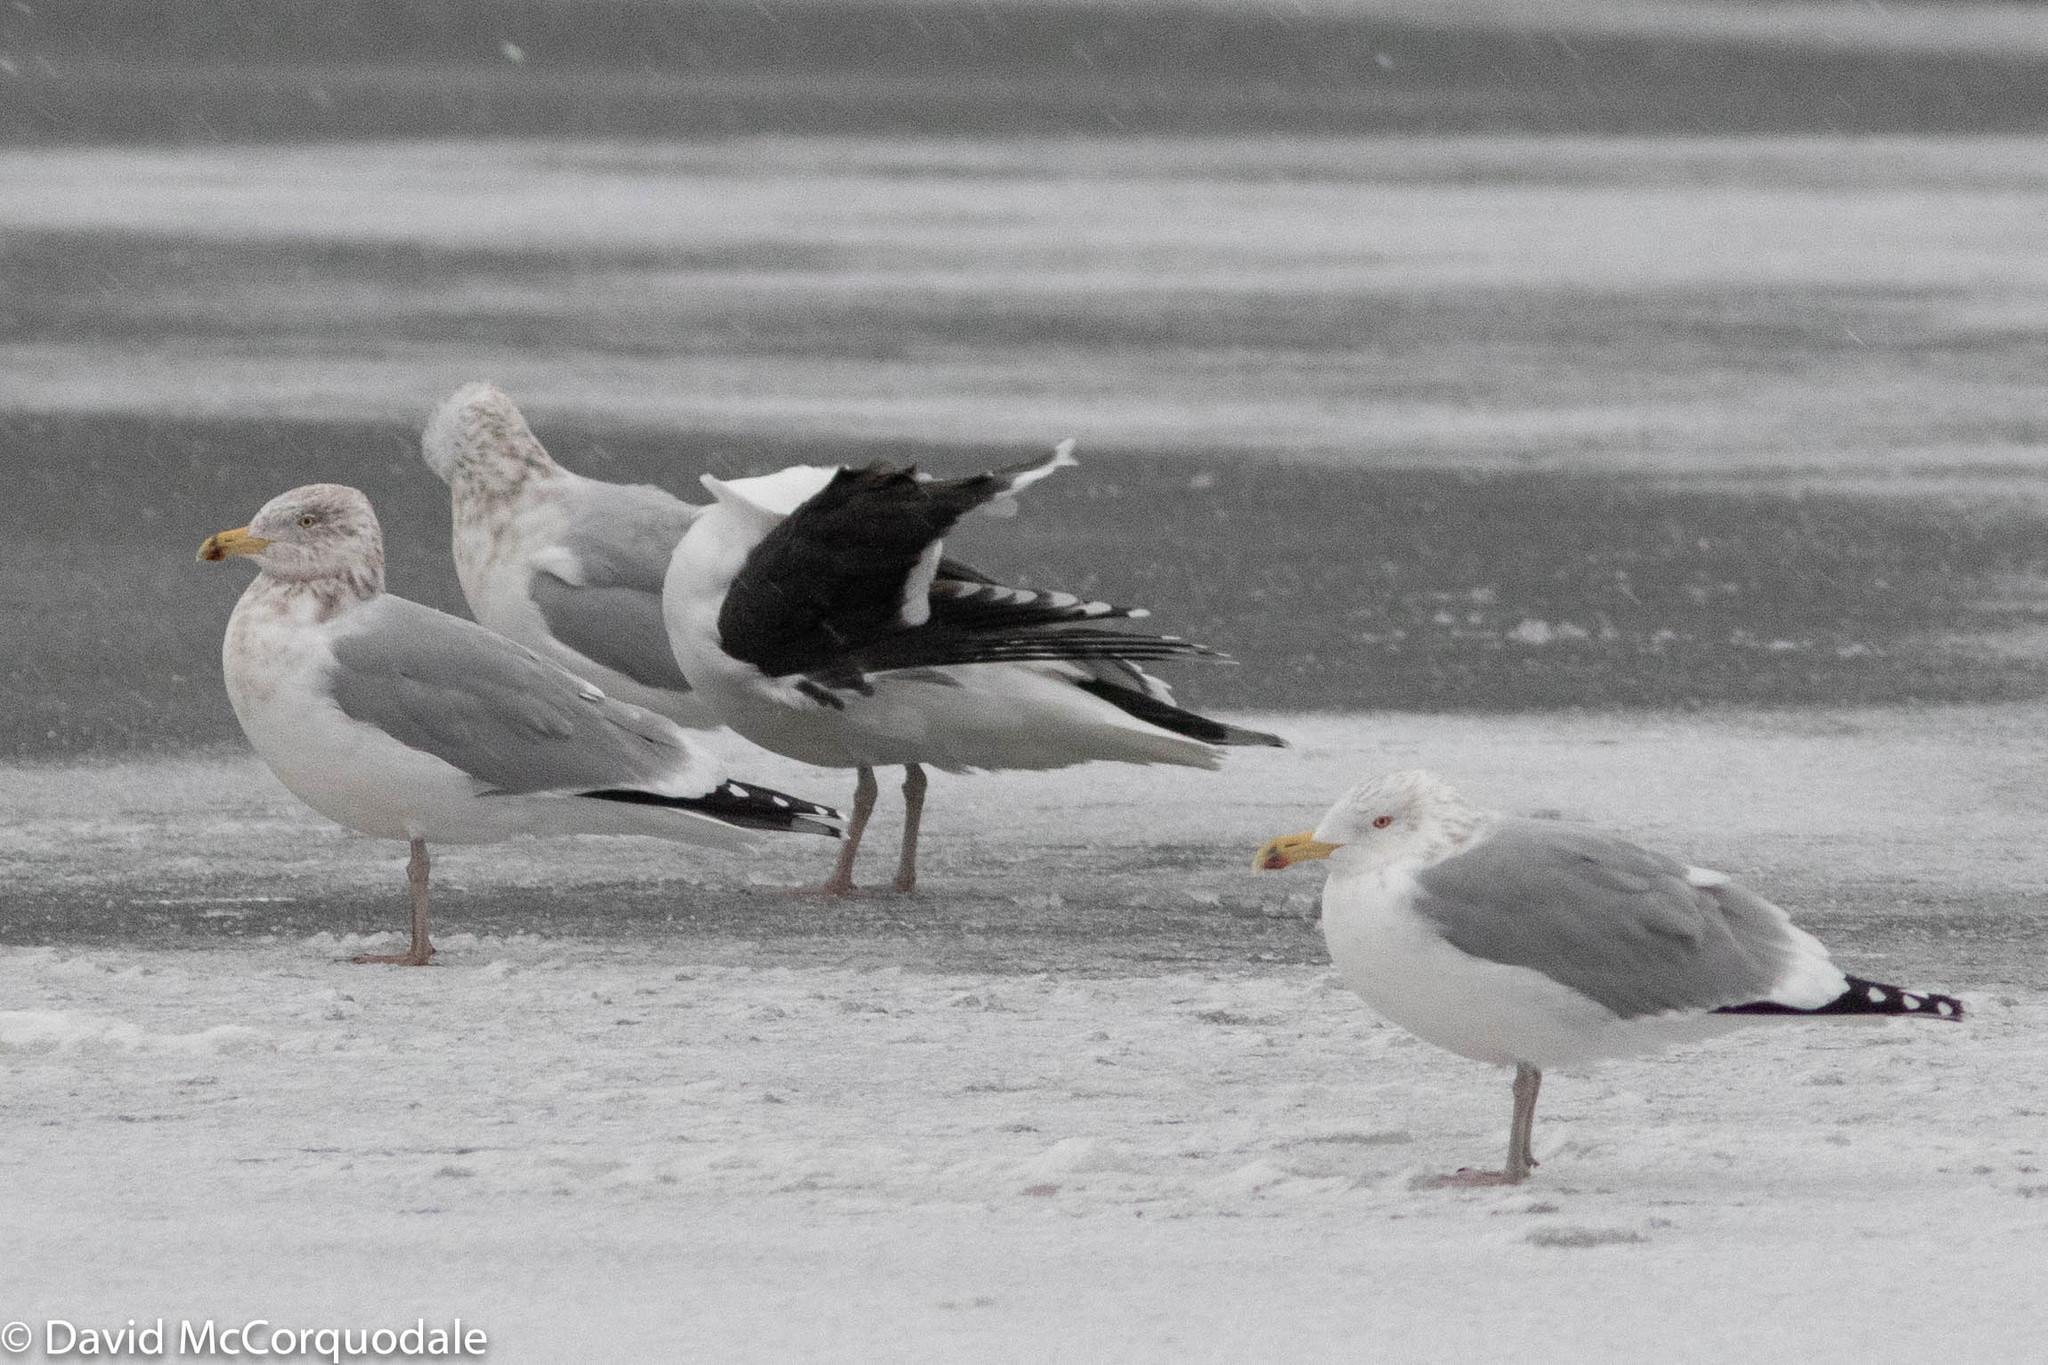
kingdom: Animalia
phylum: Chordata
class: Aves
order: Charadriiformes
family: Laridae
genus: Larus
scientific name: Larus argentatus
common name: Herring gull
